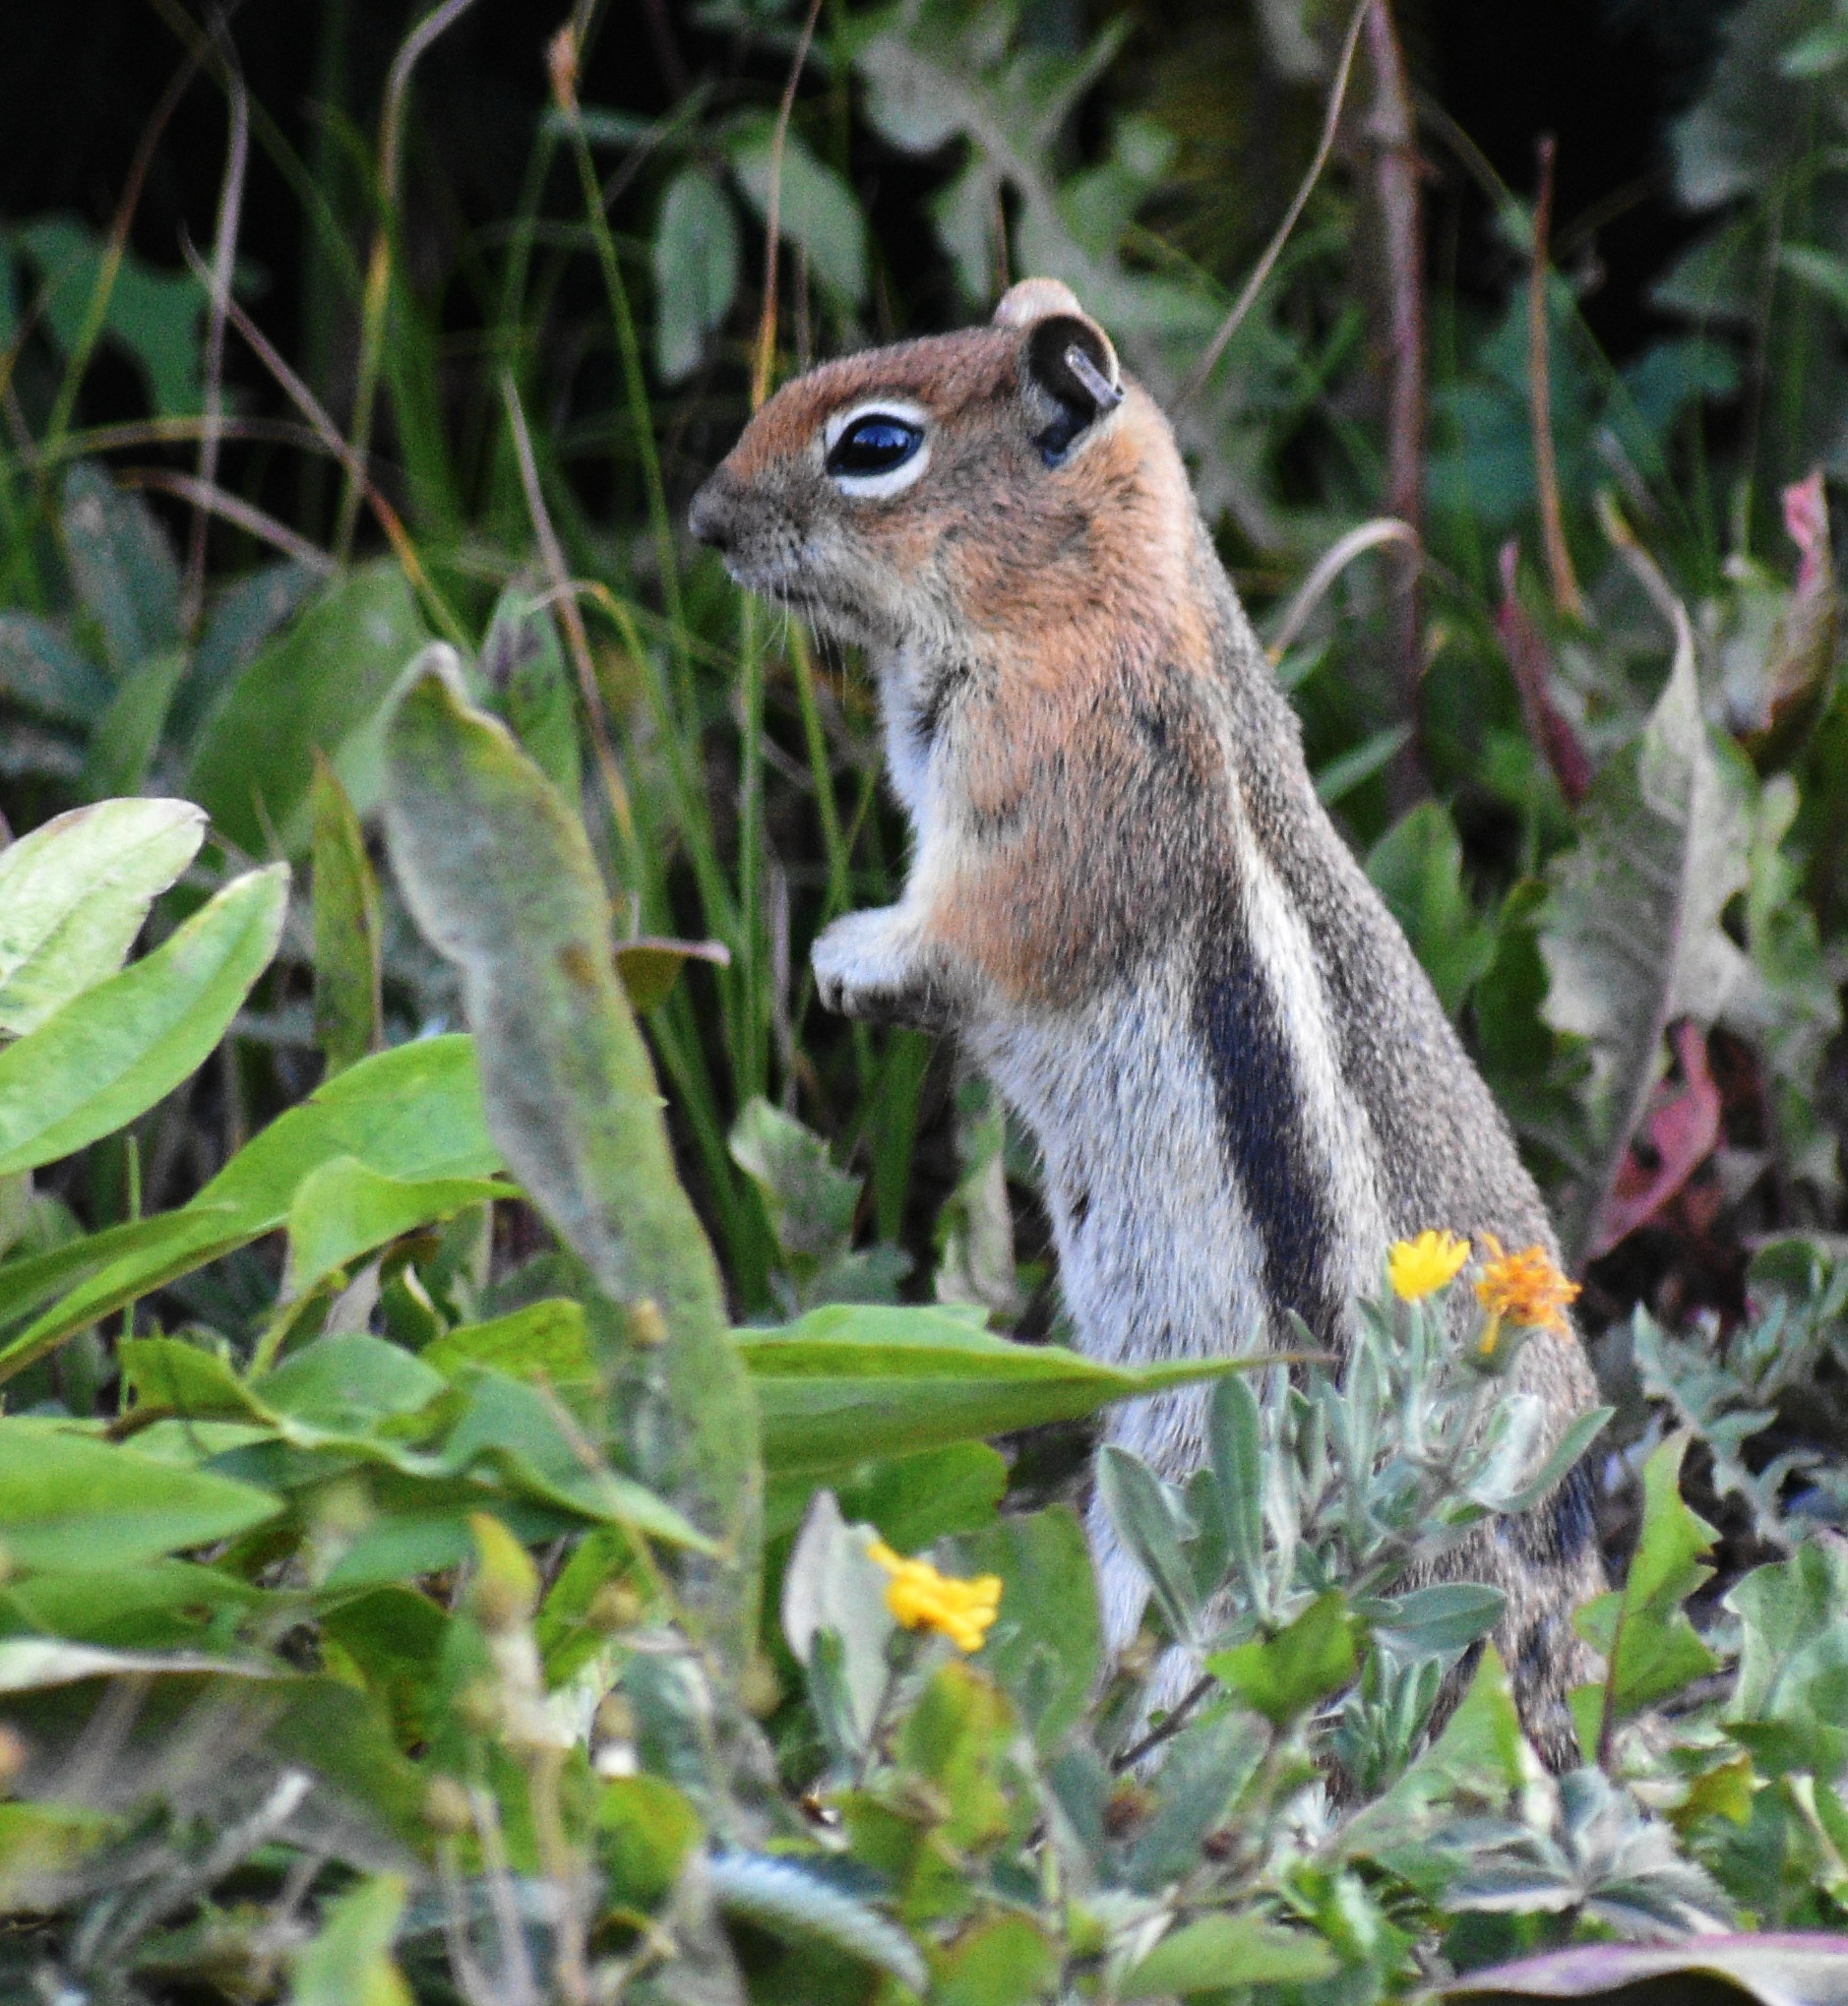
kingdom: Animalia
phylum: Chordata
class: Mammalia
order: Rodentia
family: Sciuridae
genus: Callospermophilus
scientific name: Callospermophilus lateralis
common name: Golden-mantled ground squirrel
